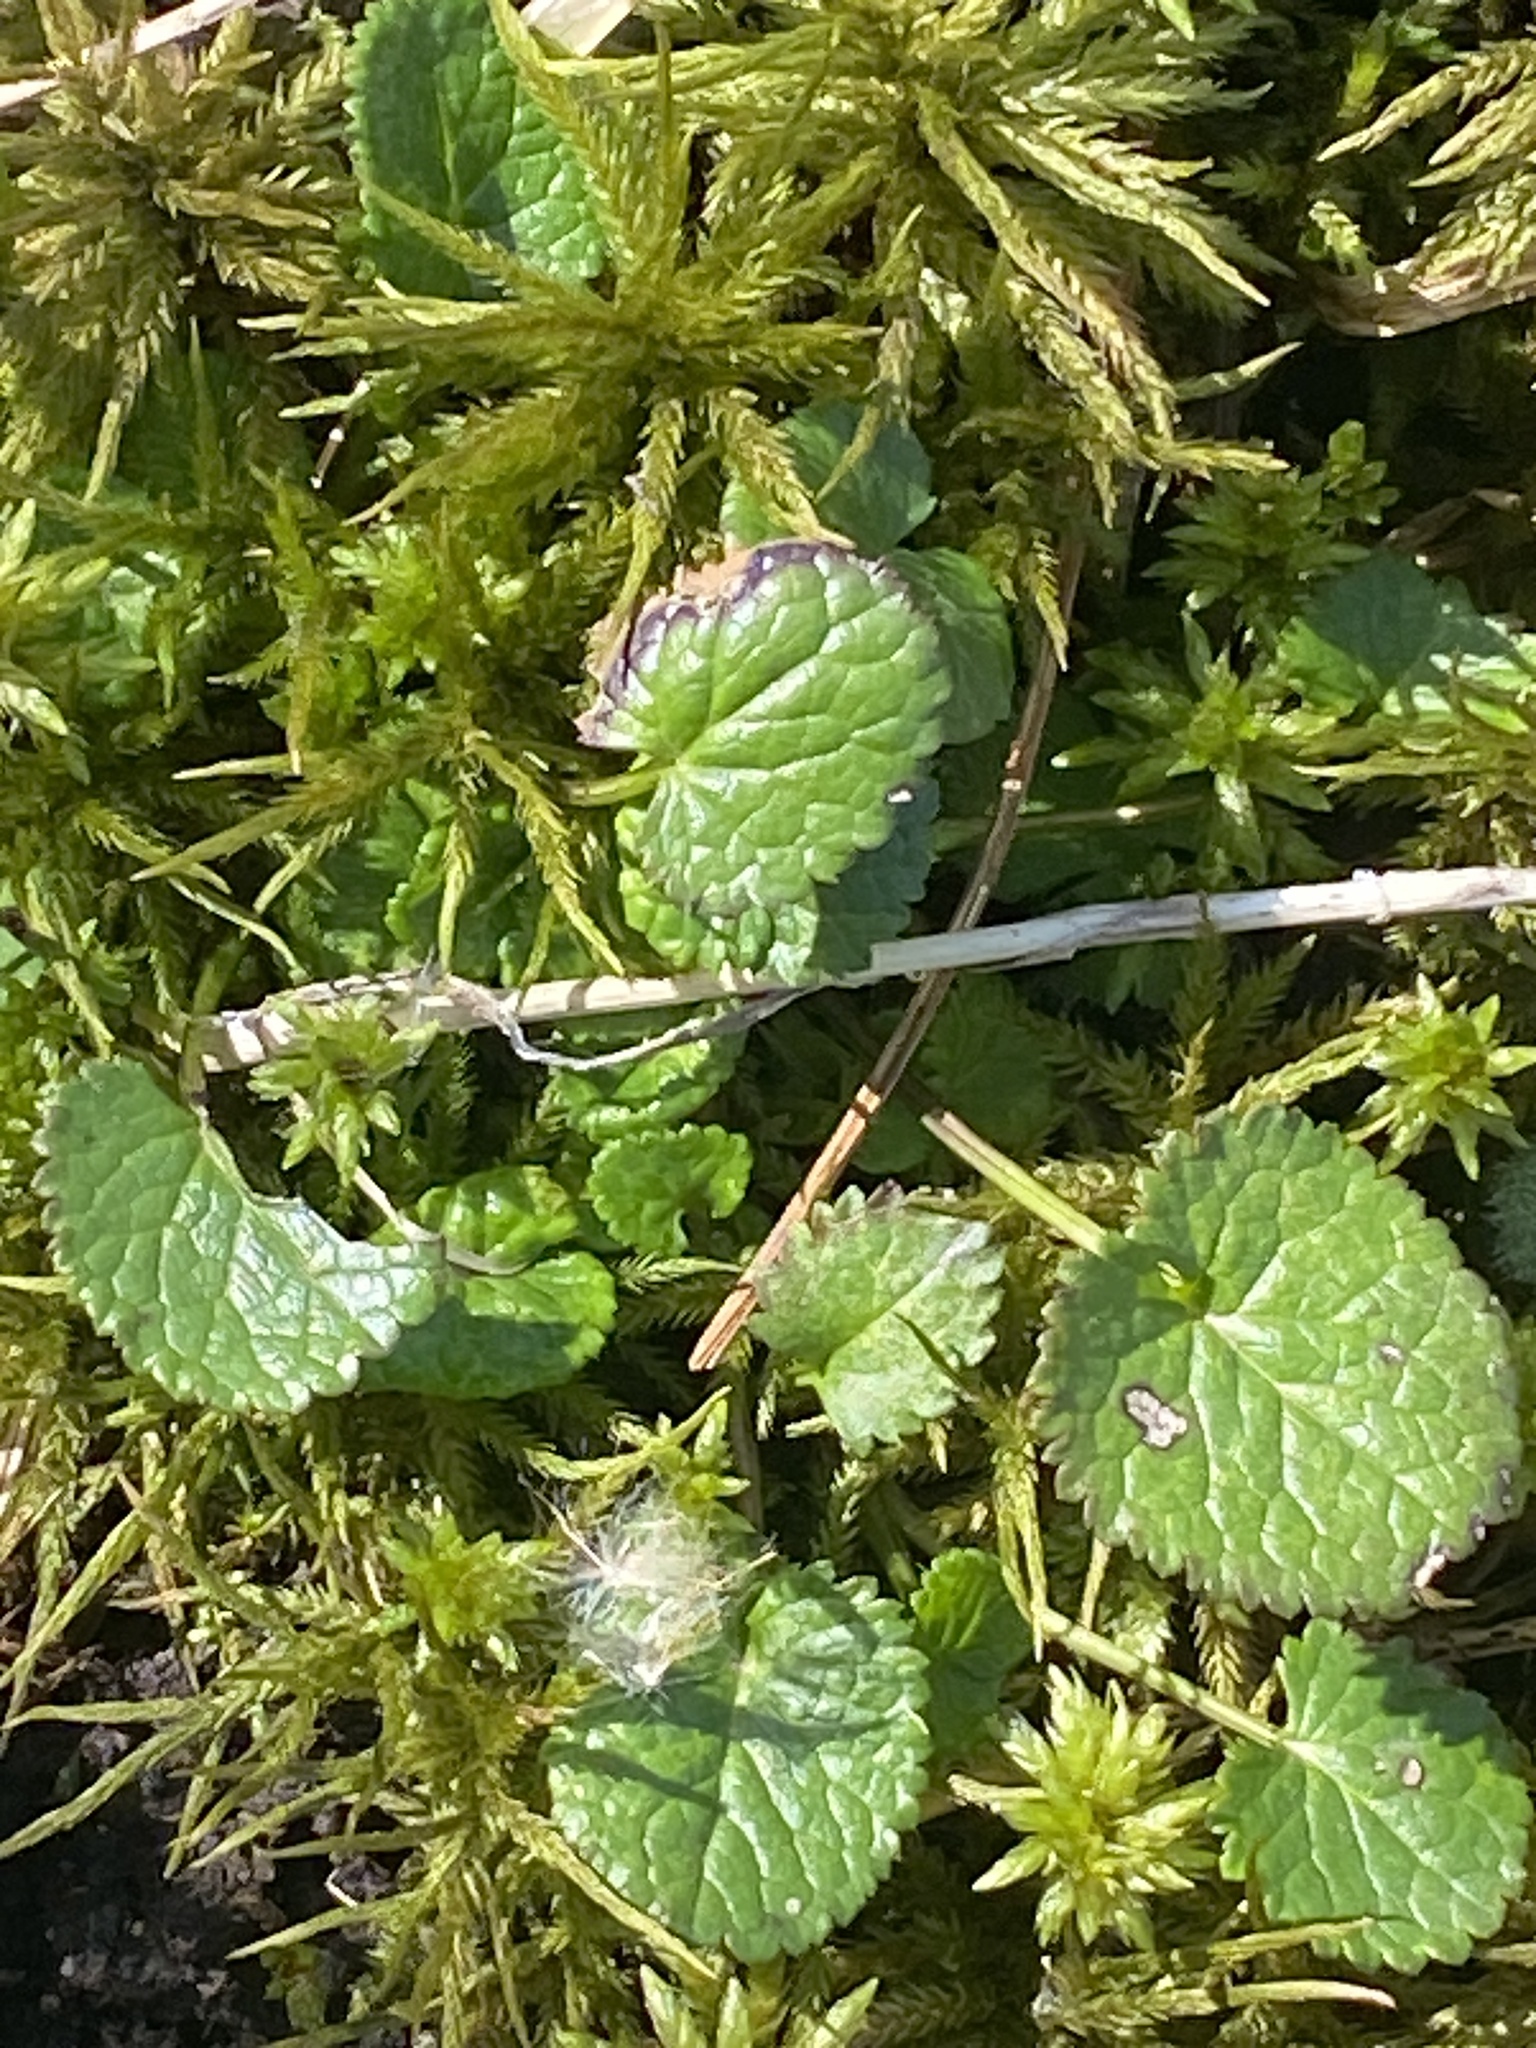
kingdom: Plantae
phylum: Tracheophyta
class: Magnoliopsida
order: Asterales
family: Asteraceae
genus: Packera
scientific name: Packera aurea
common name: Golden groundsel
